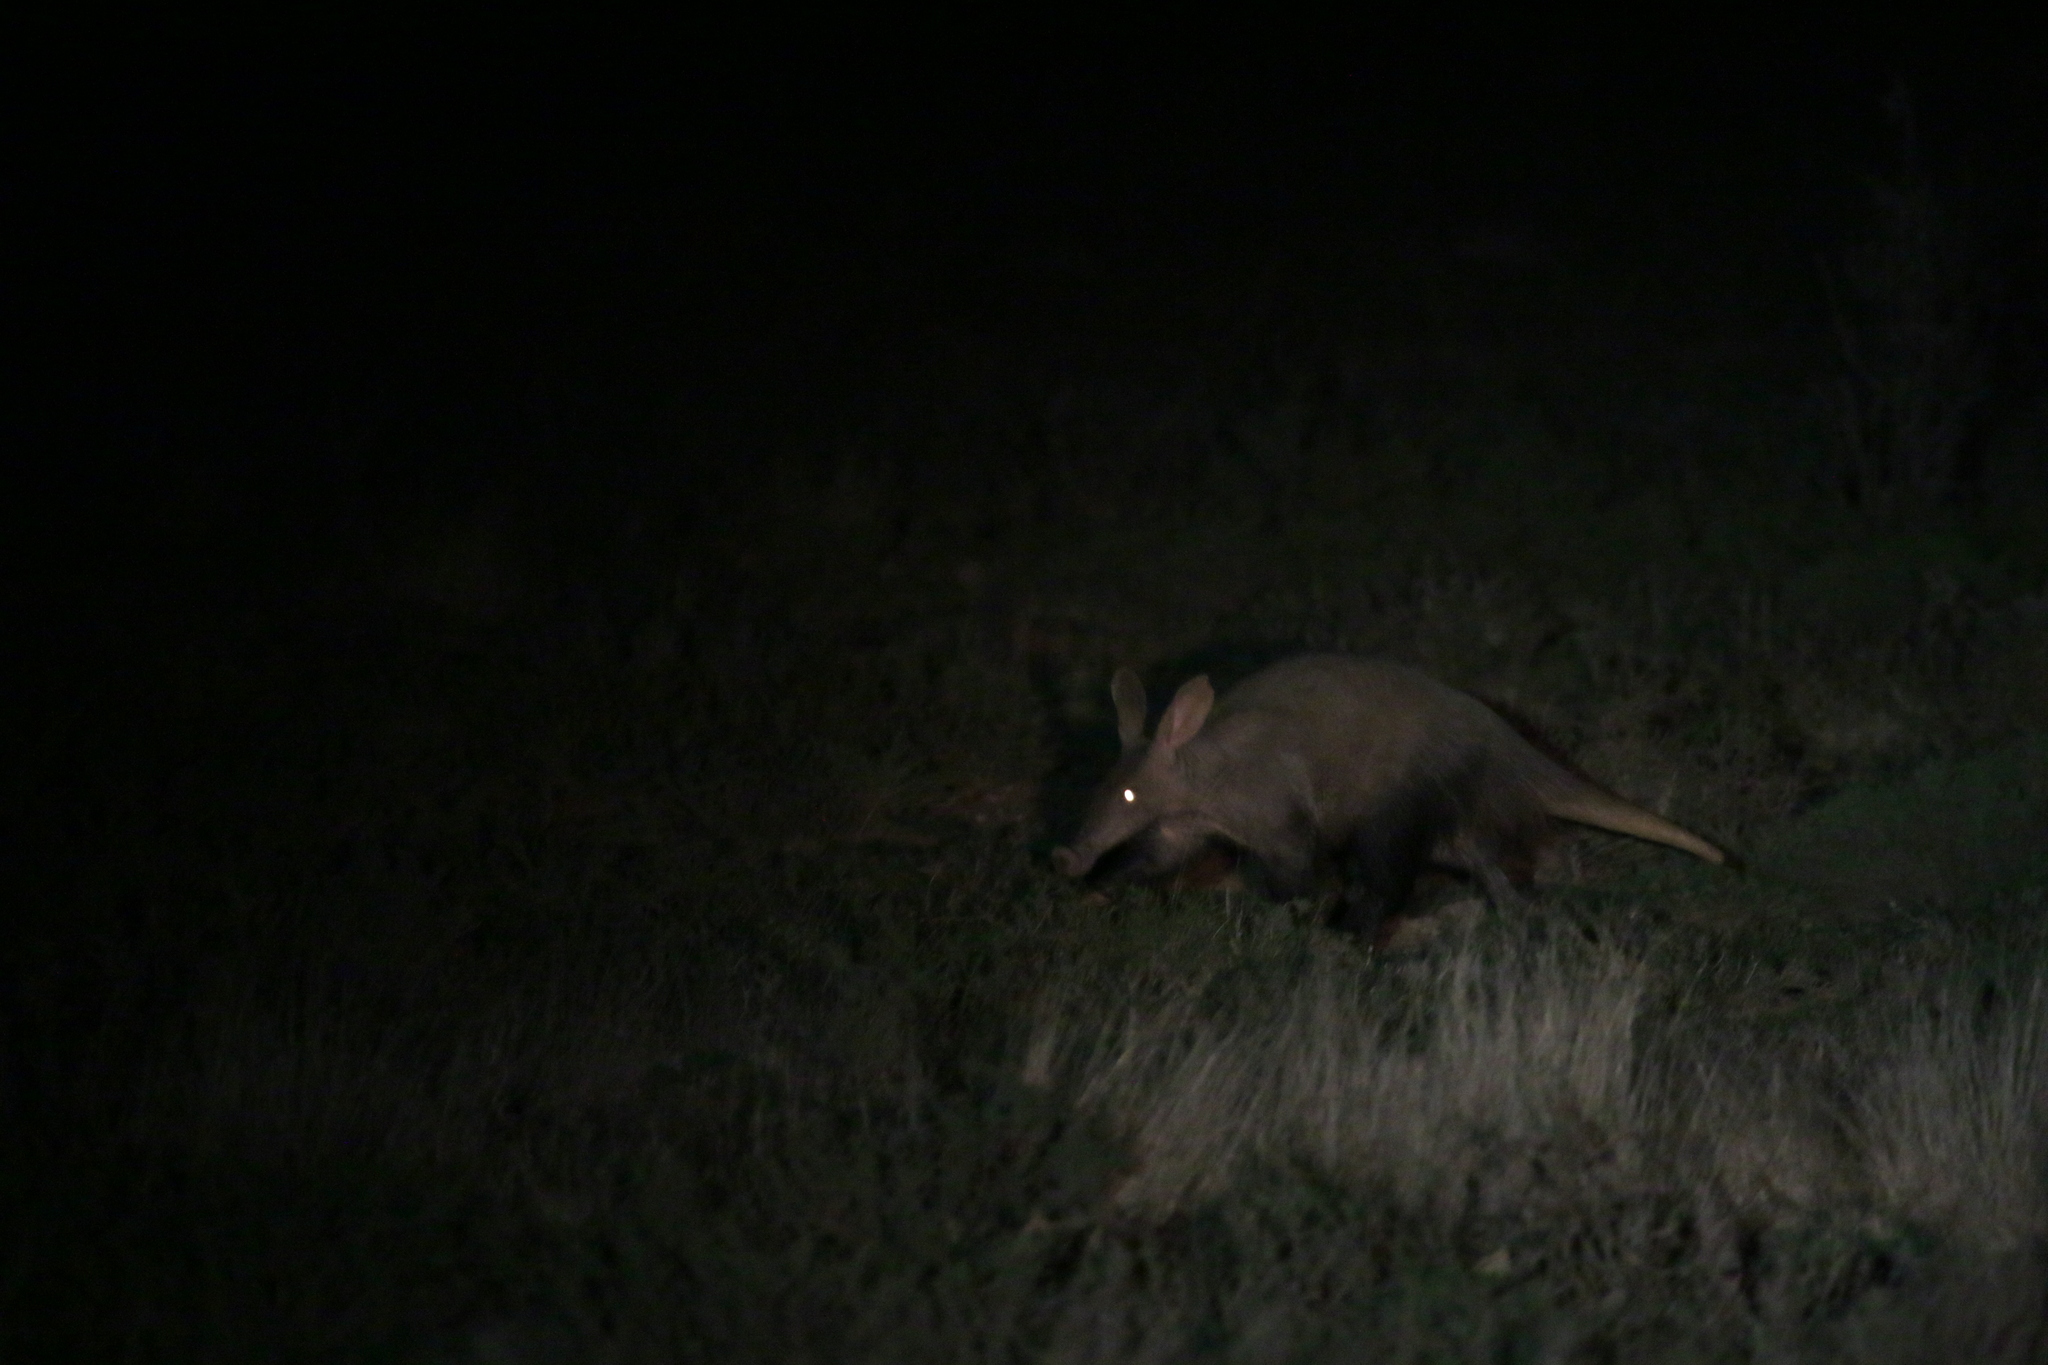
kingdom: Animalia
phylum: Chordata
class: Mammalia
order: Tubulidentata
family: Orycteropodidae
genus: Orycteropus
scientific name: Orycteropus afer
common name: Aardvark
